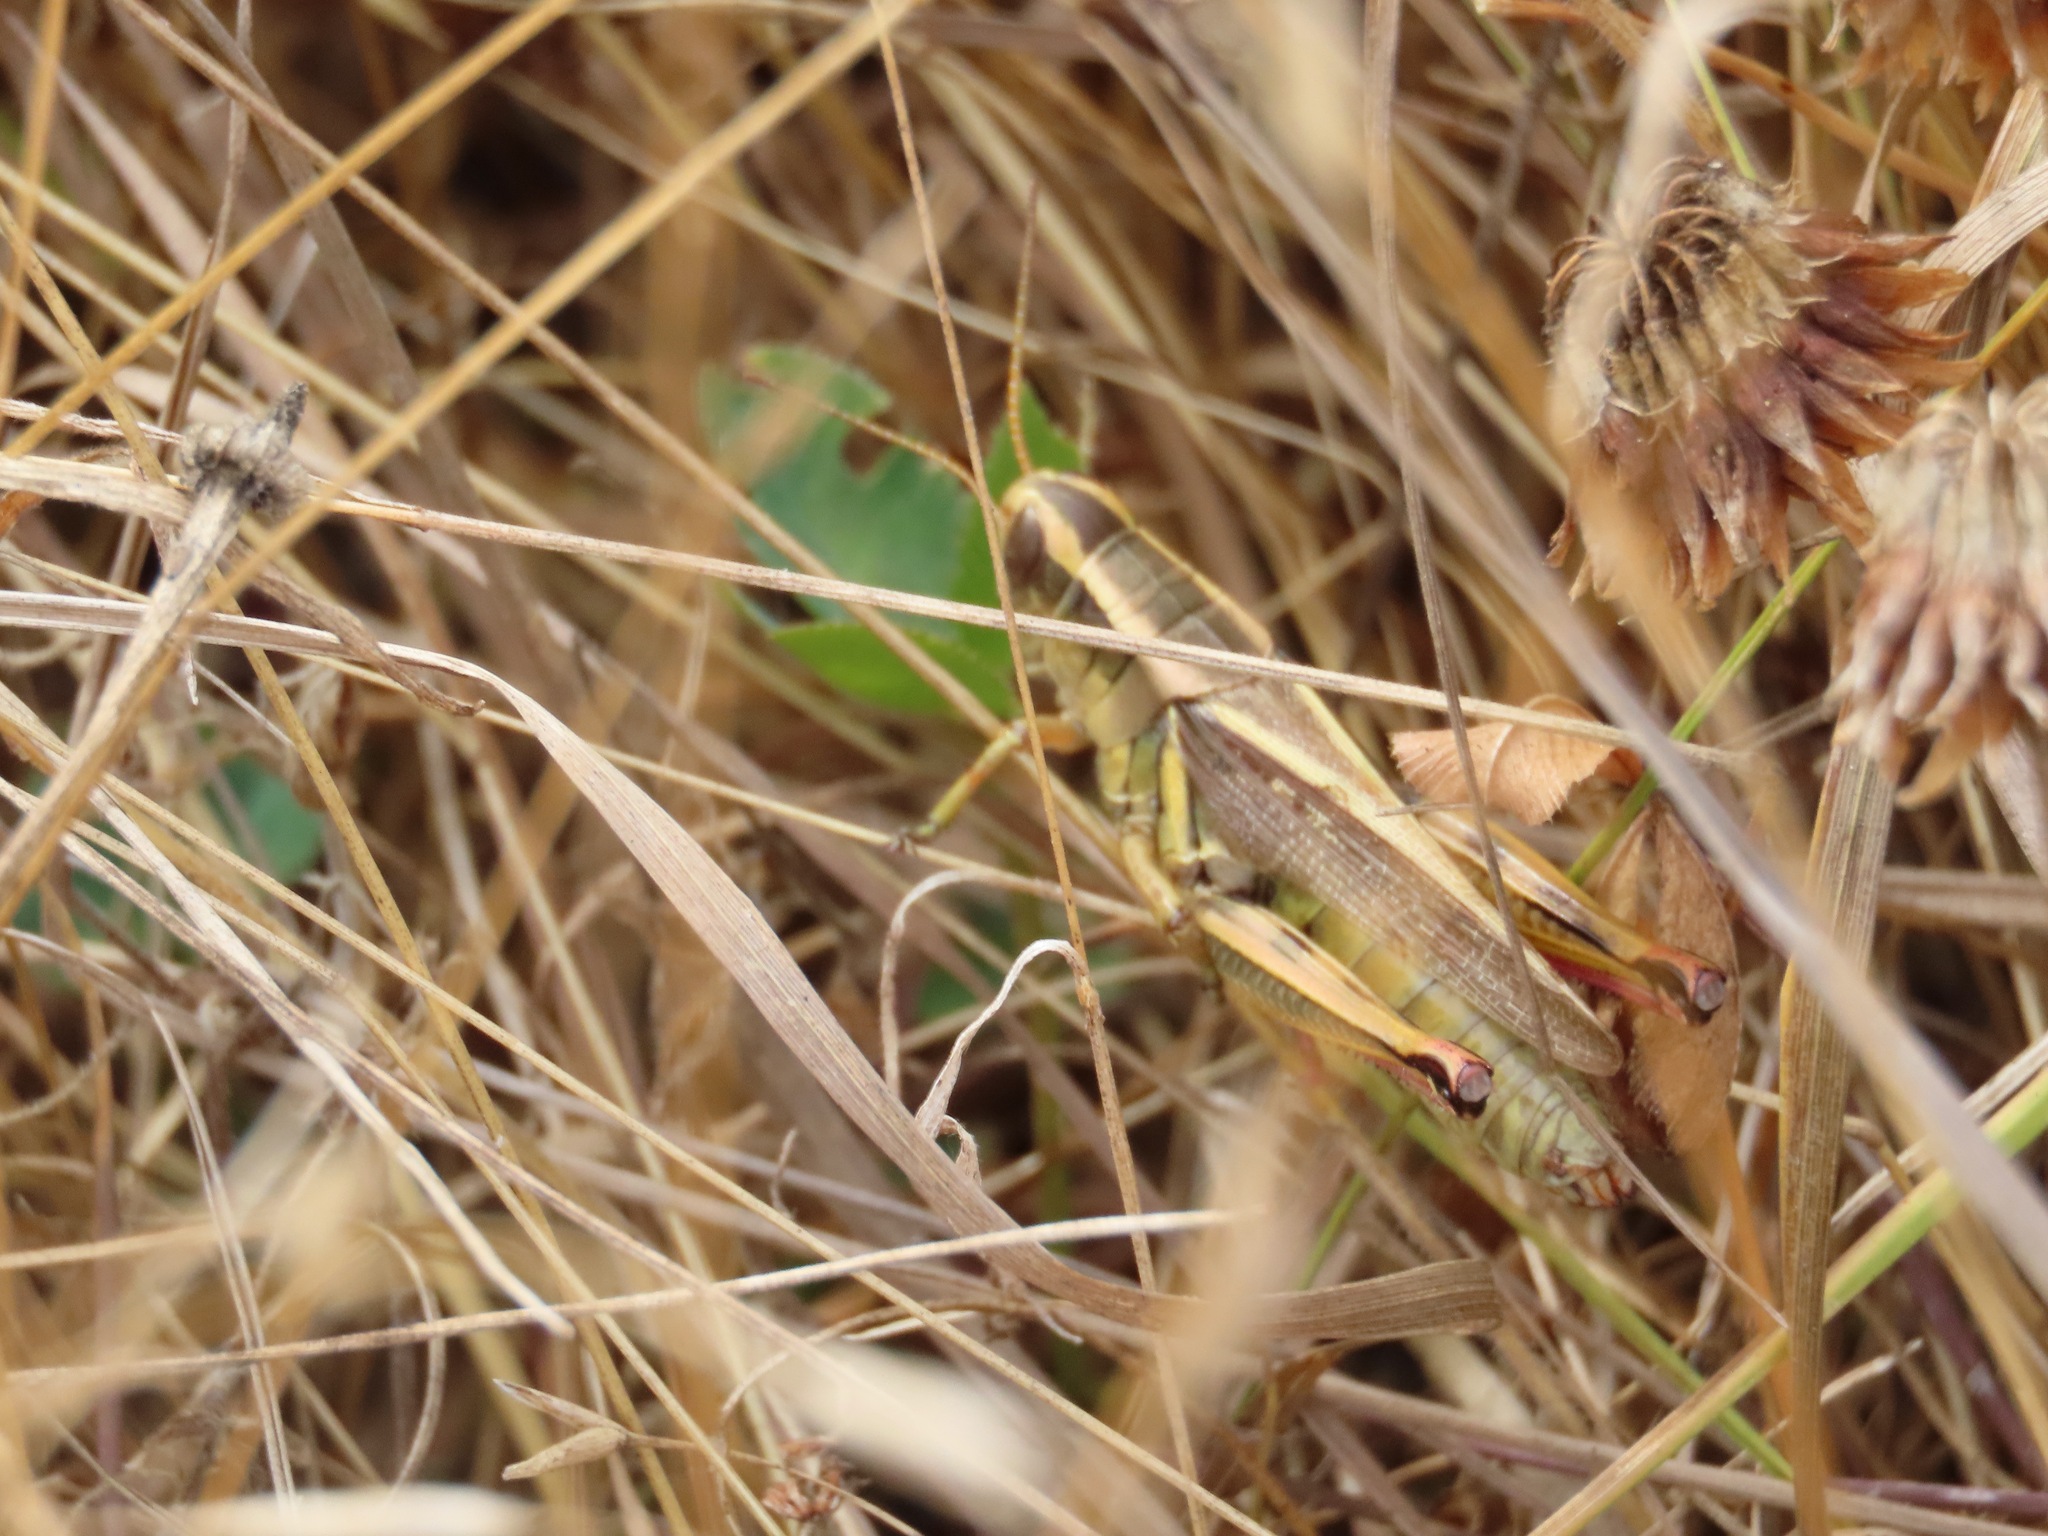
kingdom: Animalia
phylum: Arthropoda
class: Insecta
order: Orthoptera
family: Acrididae
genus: Melanoplus
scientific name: Melanoplus bivittatus
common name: Two-striped grasshopper
